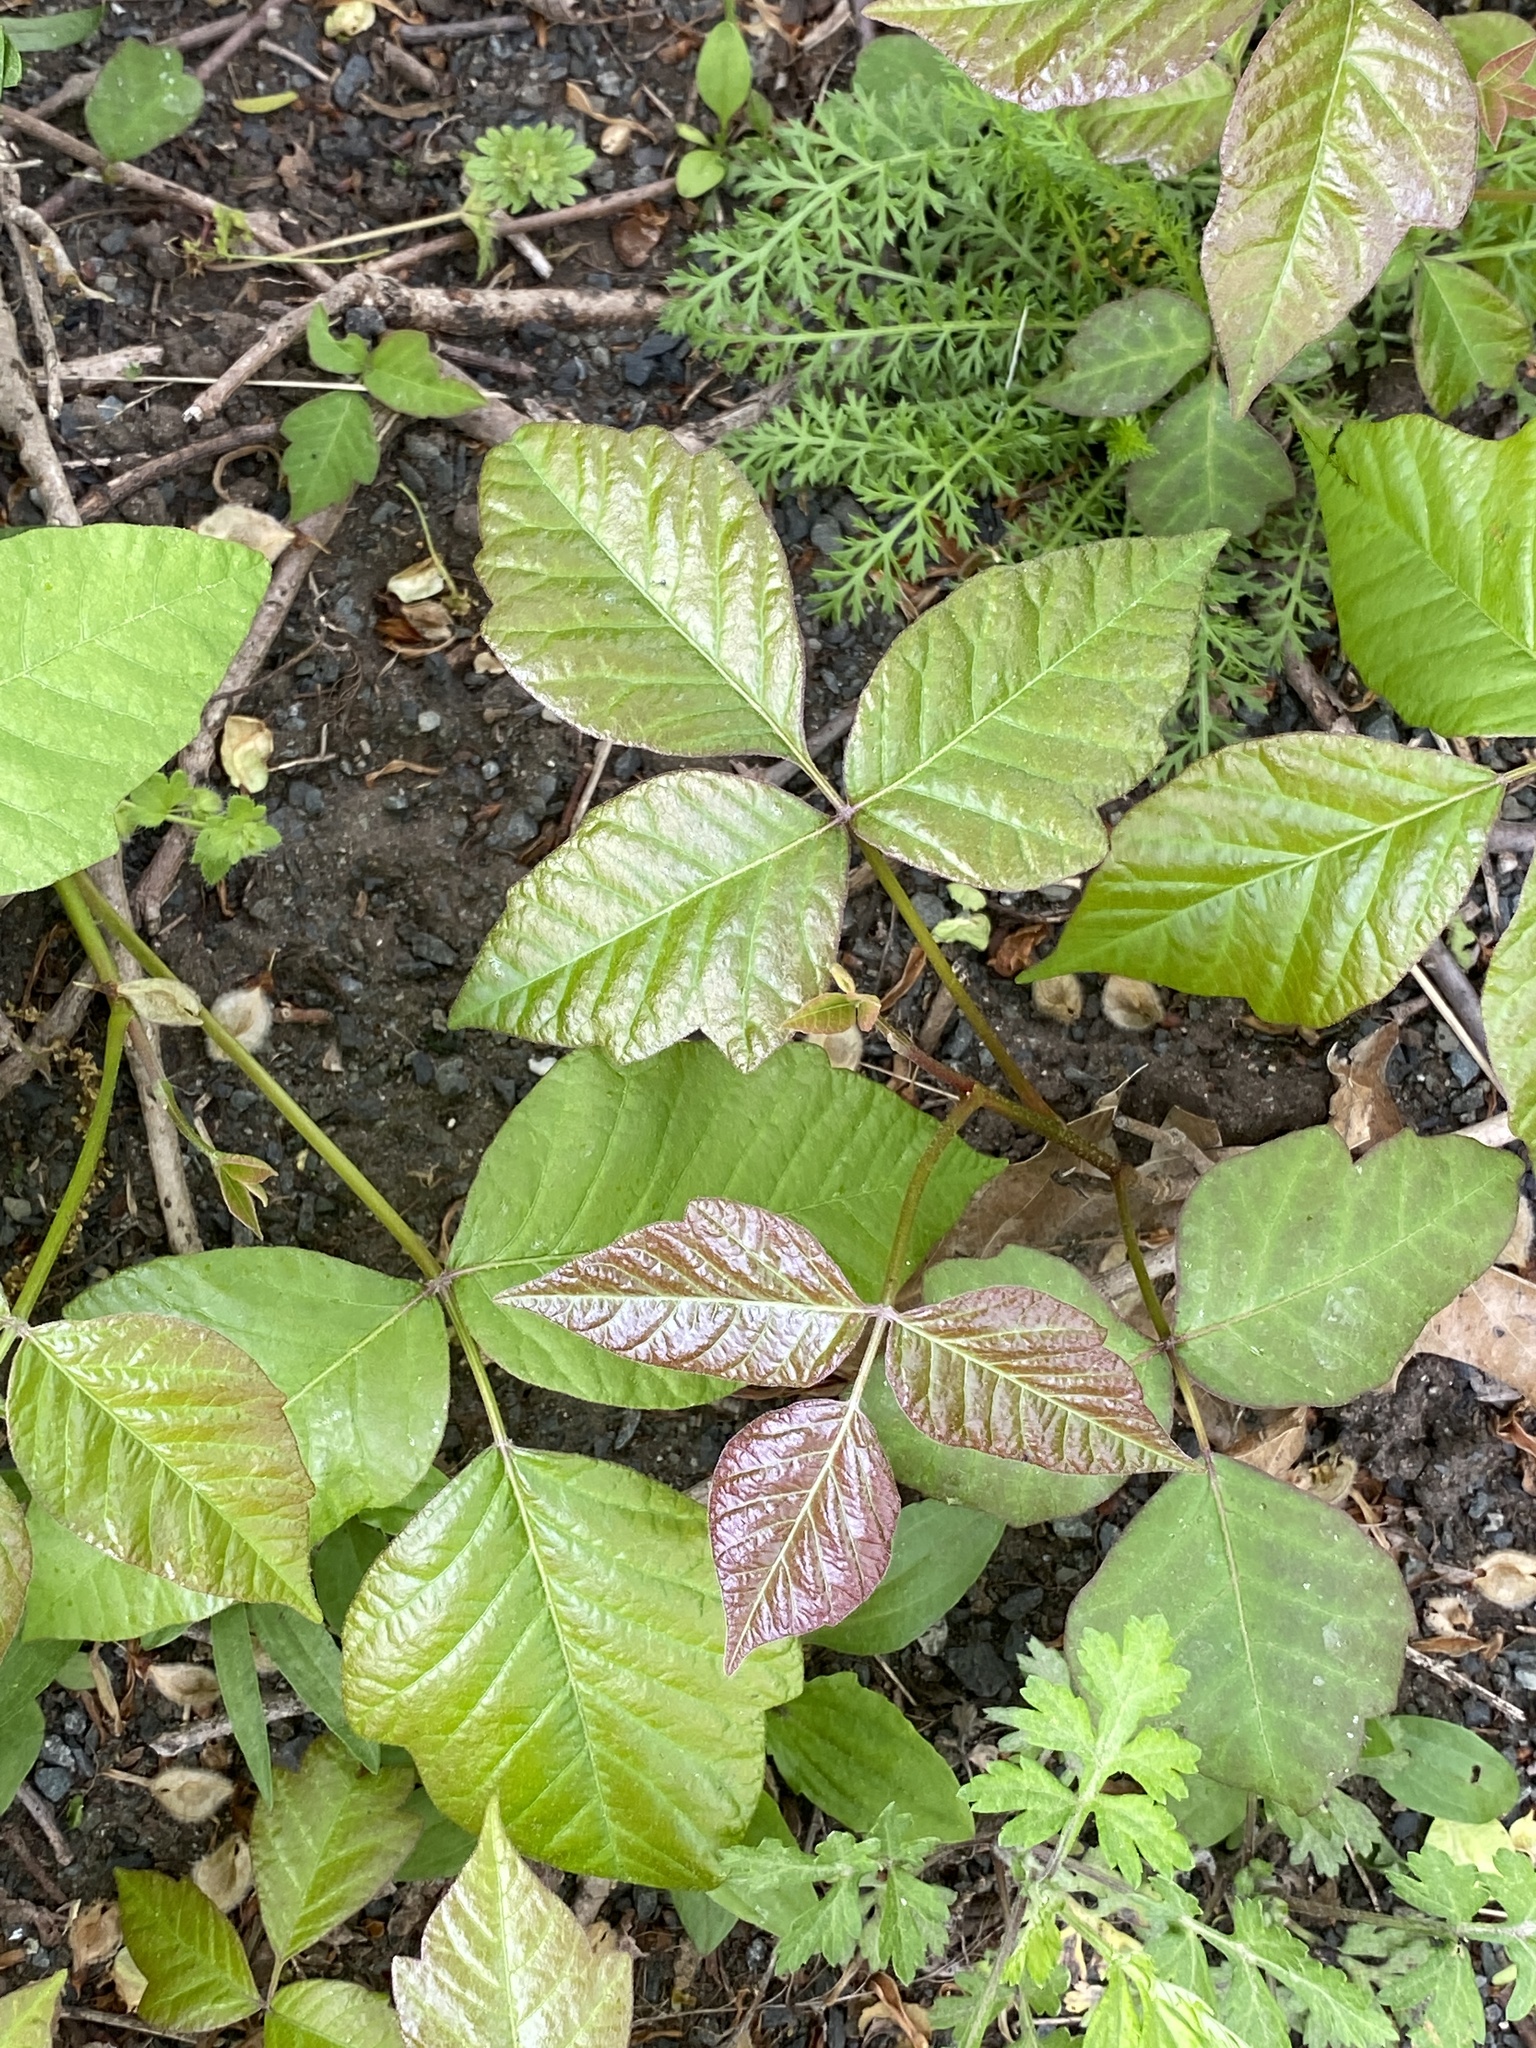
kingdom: Plantae
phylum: Tracheophyta
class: Magnoliopsida
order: Sapindales
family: Anacardiaceae
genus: Toxicodendron
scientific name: Toxicodendron radicans
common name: Poison ivy
